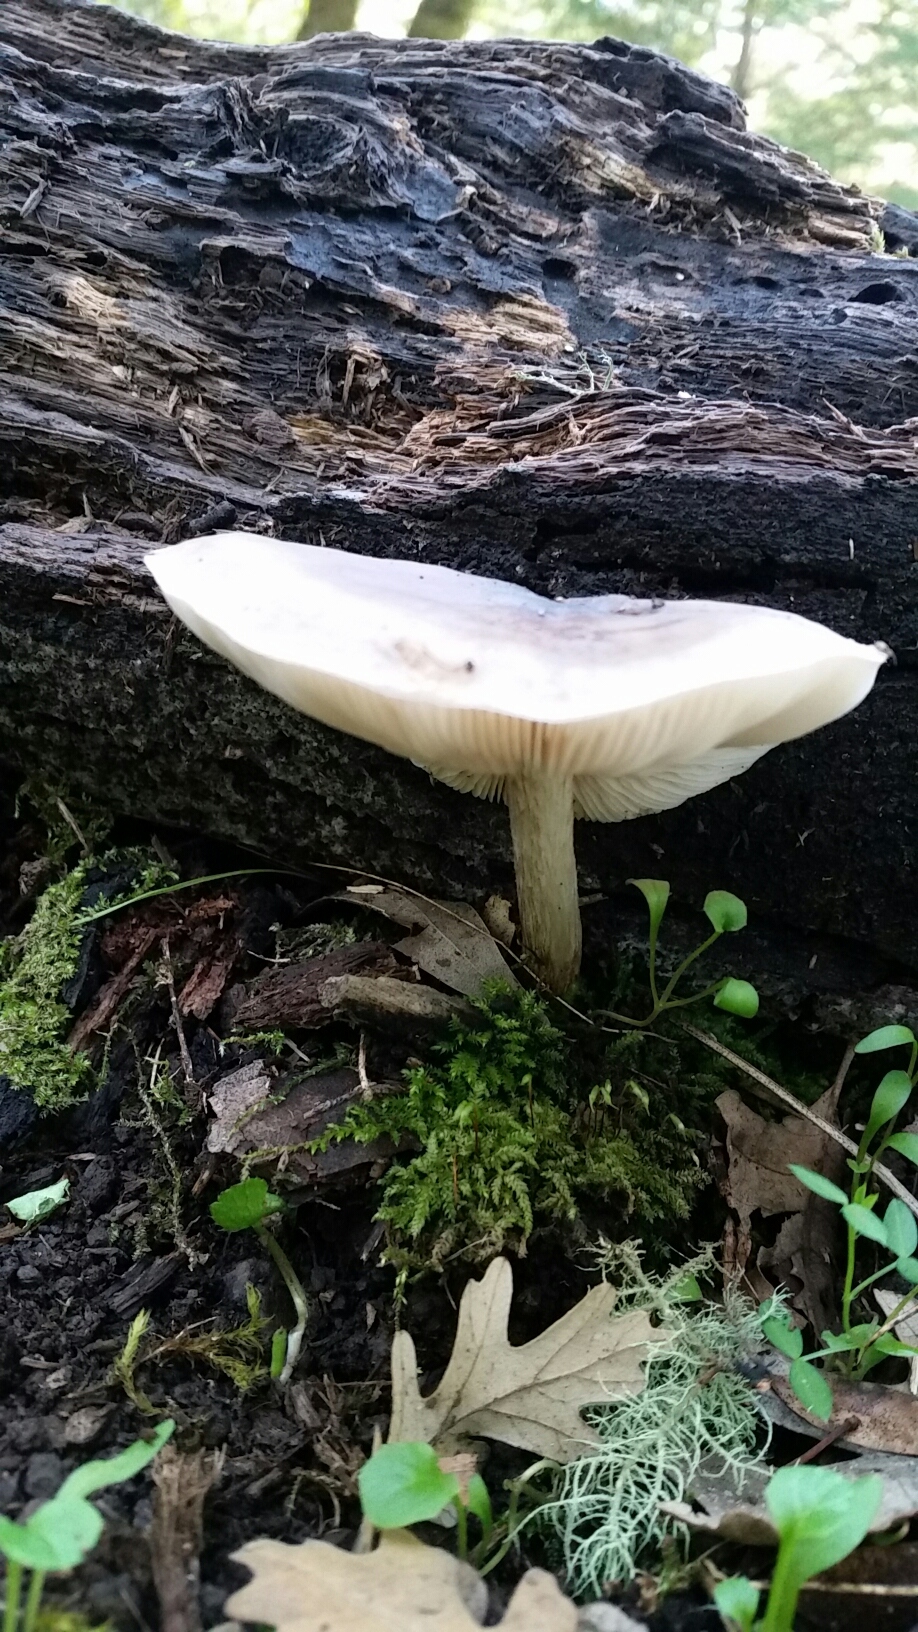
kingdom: Fungi
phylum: Basidiomycota
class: Agaricomycetes
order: Agaricales
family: Pluteaceae
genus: Pluteus
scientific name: Pluteus exilis
